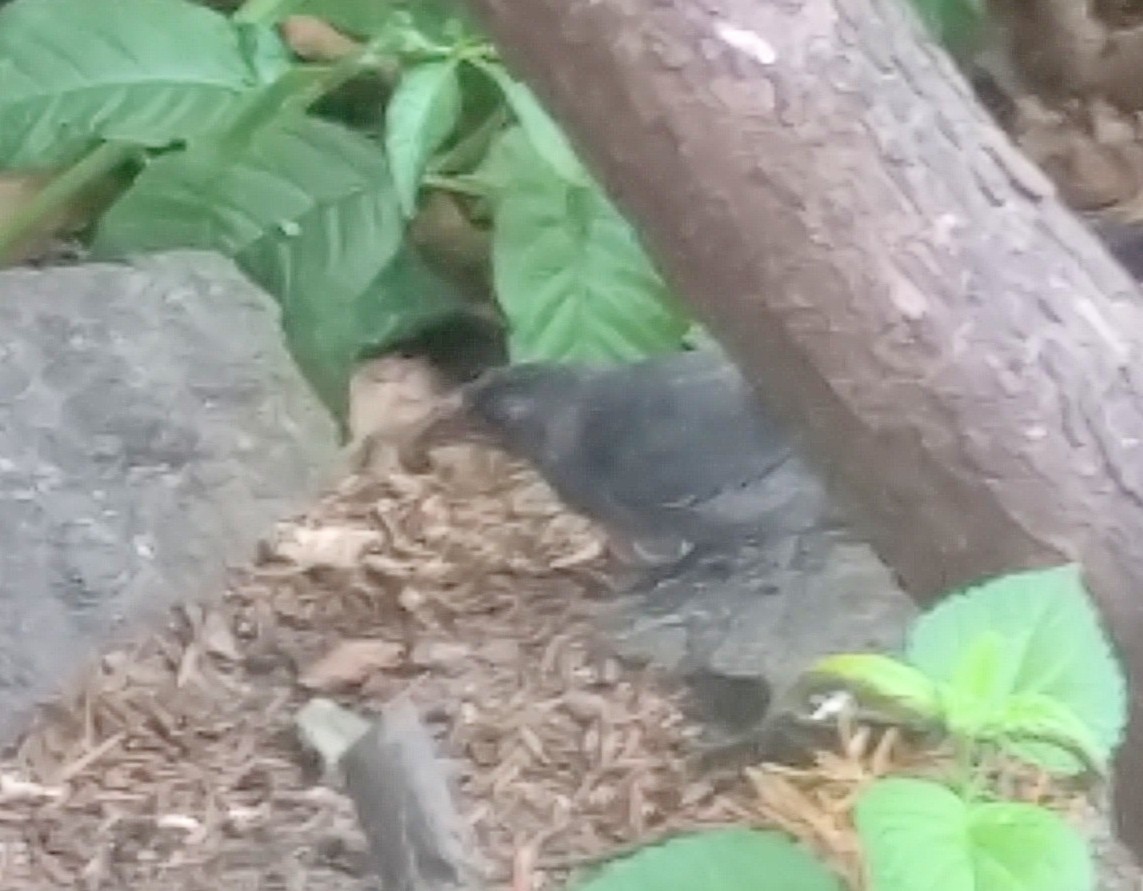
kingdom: Animalia
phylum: Chordata
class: Aves
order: Passeriformes
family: Mimidae
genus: Dumetella
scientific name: Dumetella carolinensis
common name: Gray catbird
